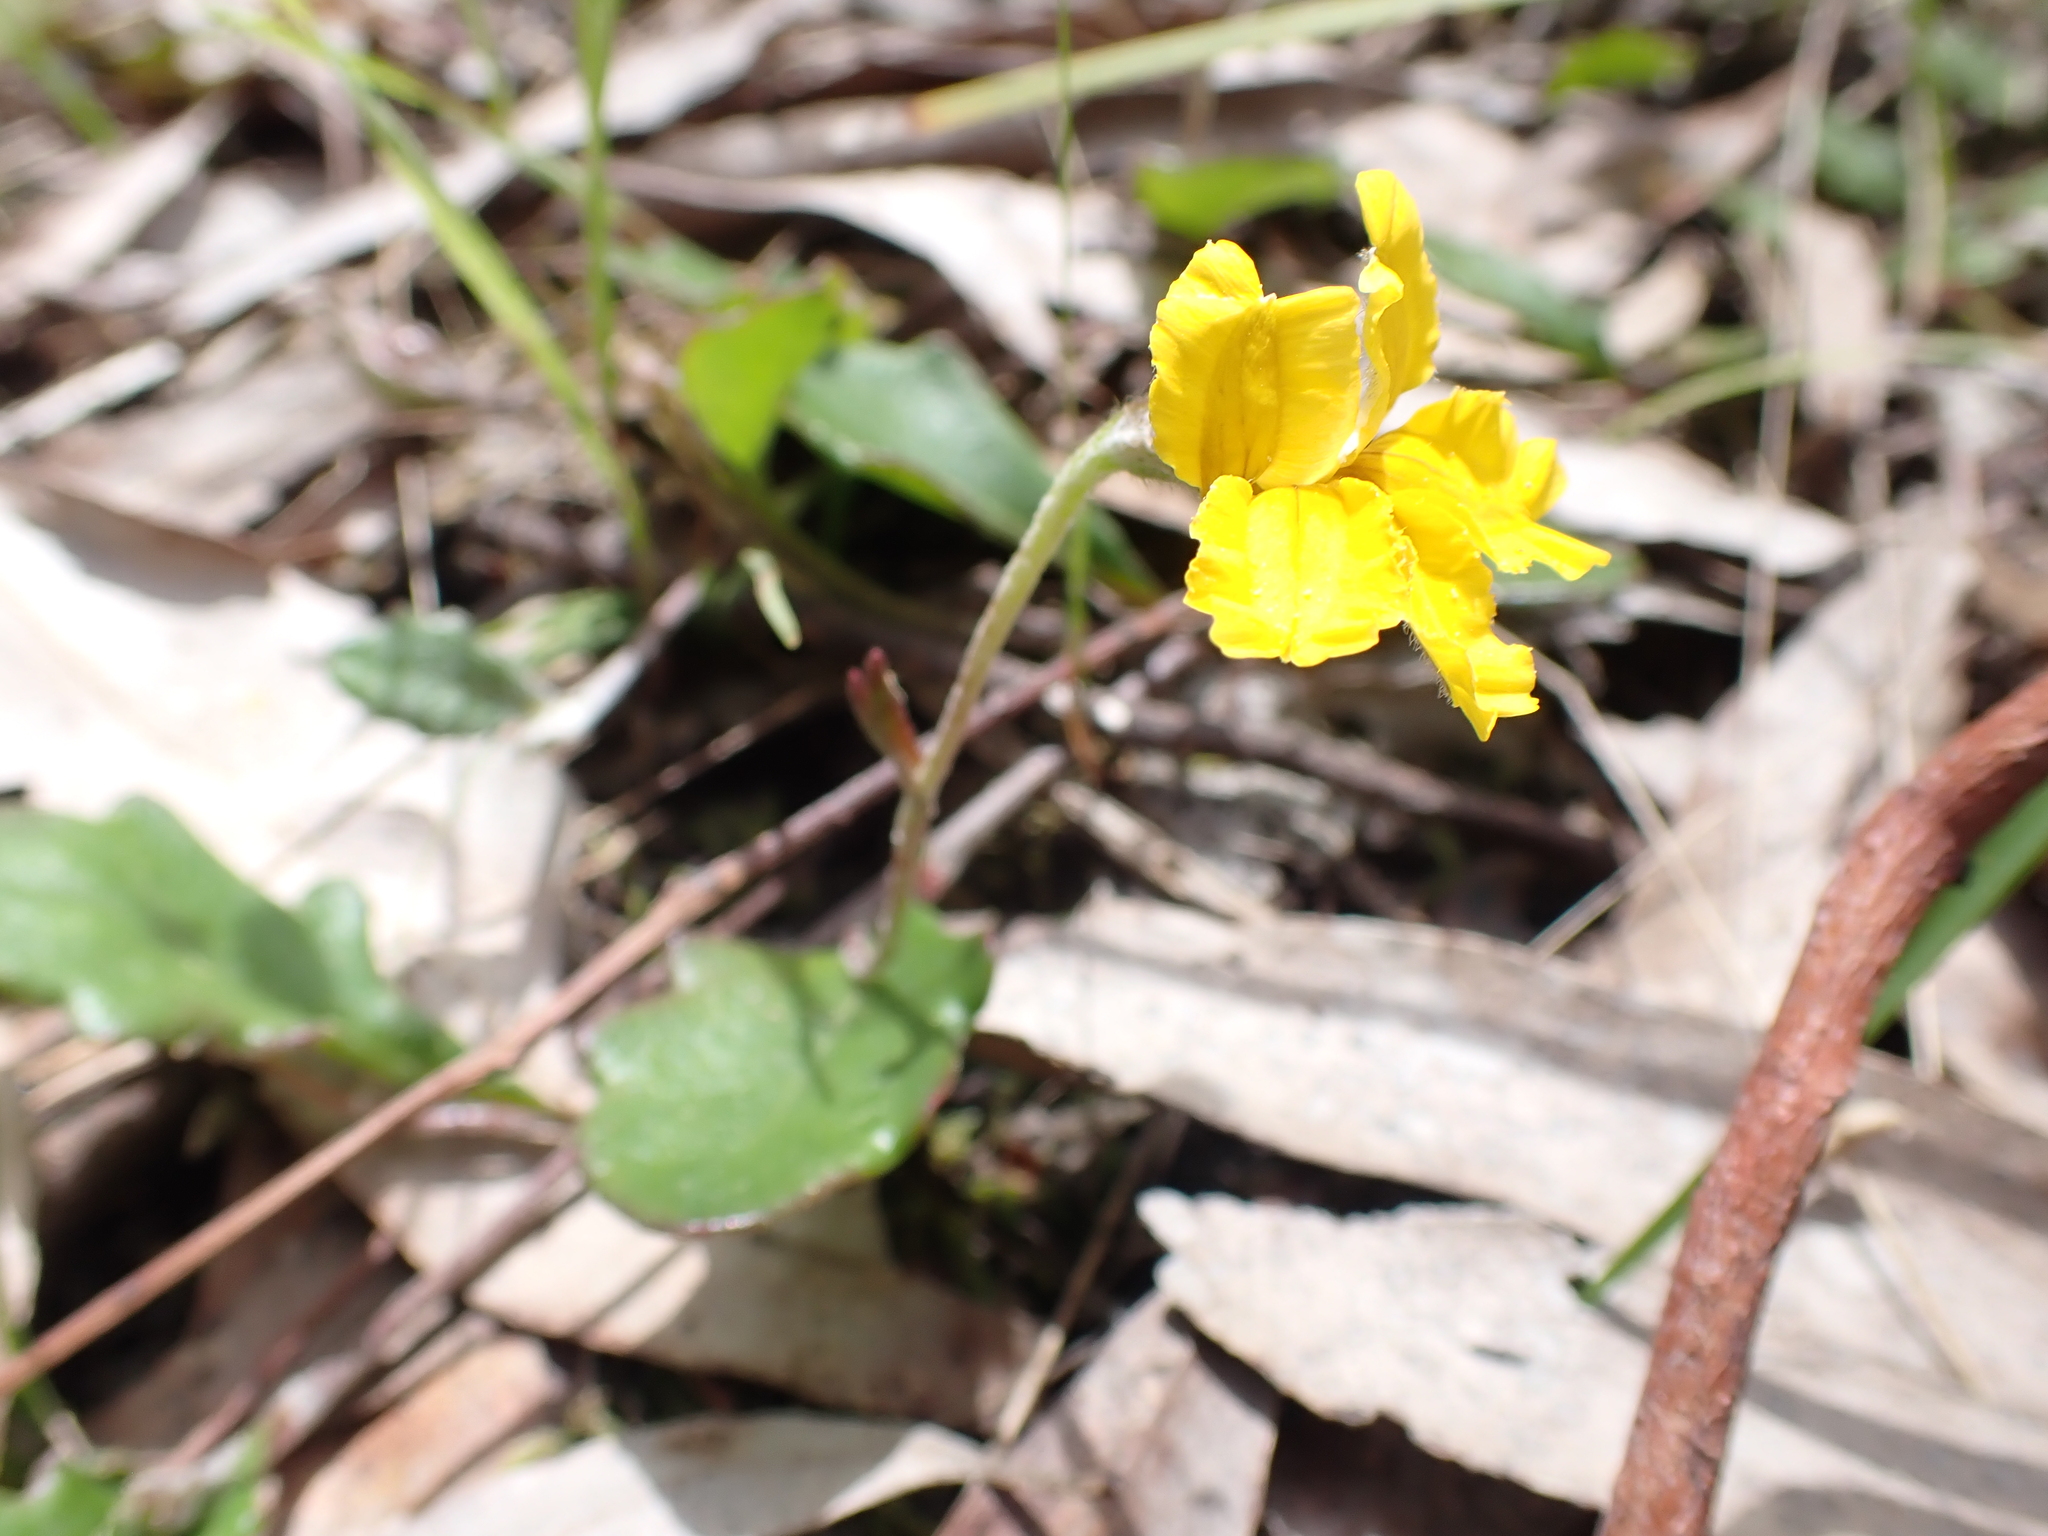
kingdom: Plantae
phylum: Tracheophyta
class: Magnoliopsida
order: Asterales
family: Goodeniaceae
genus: Goodenia
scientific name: Goodenia lanata
